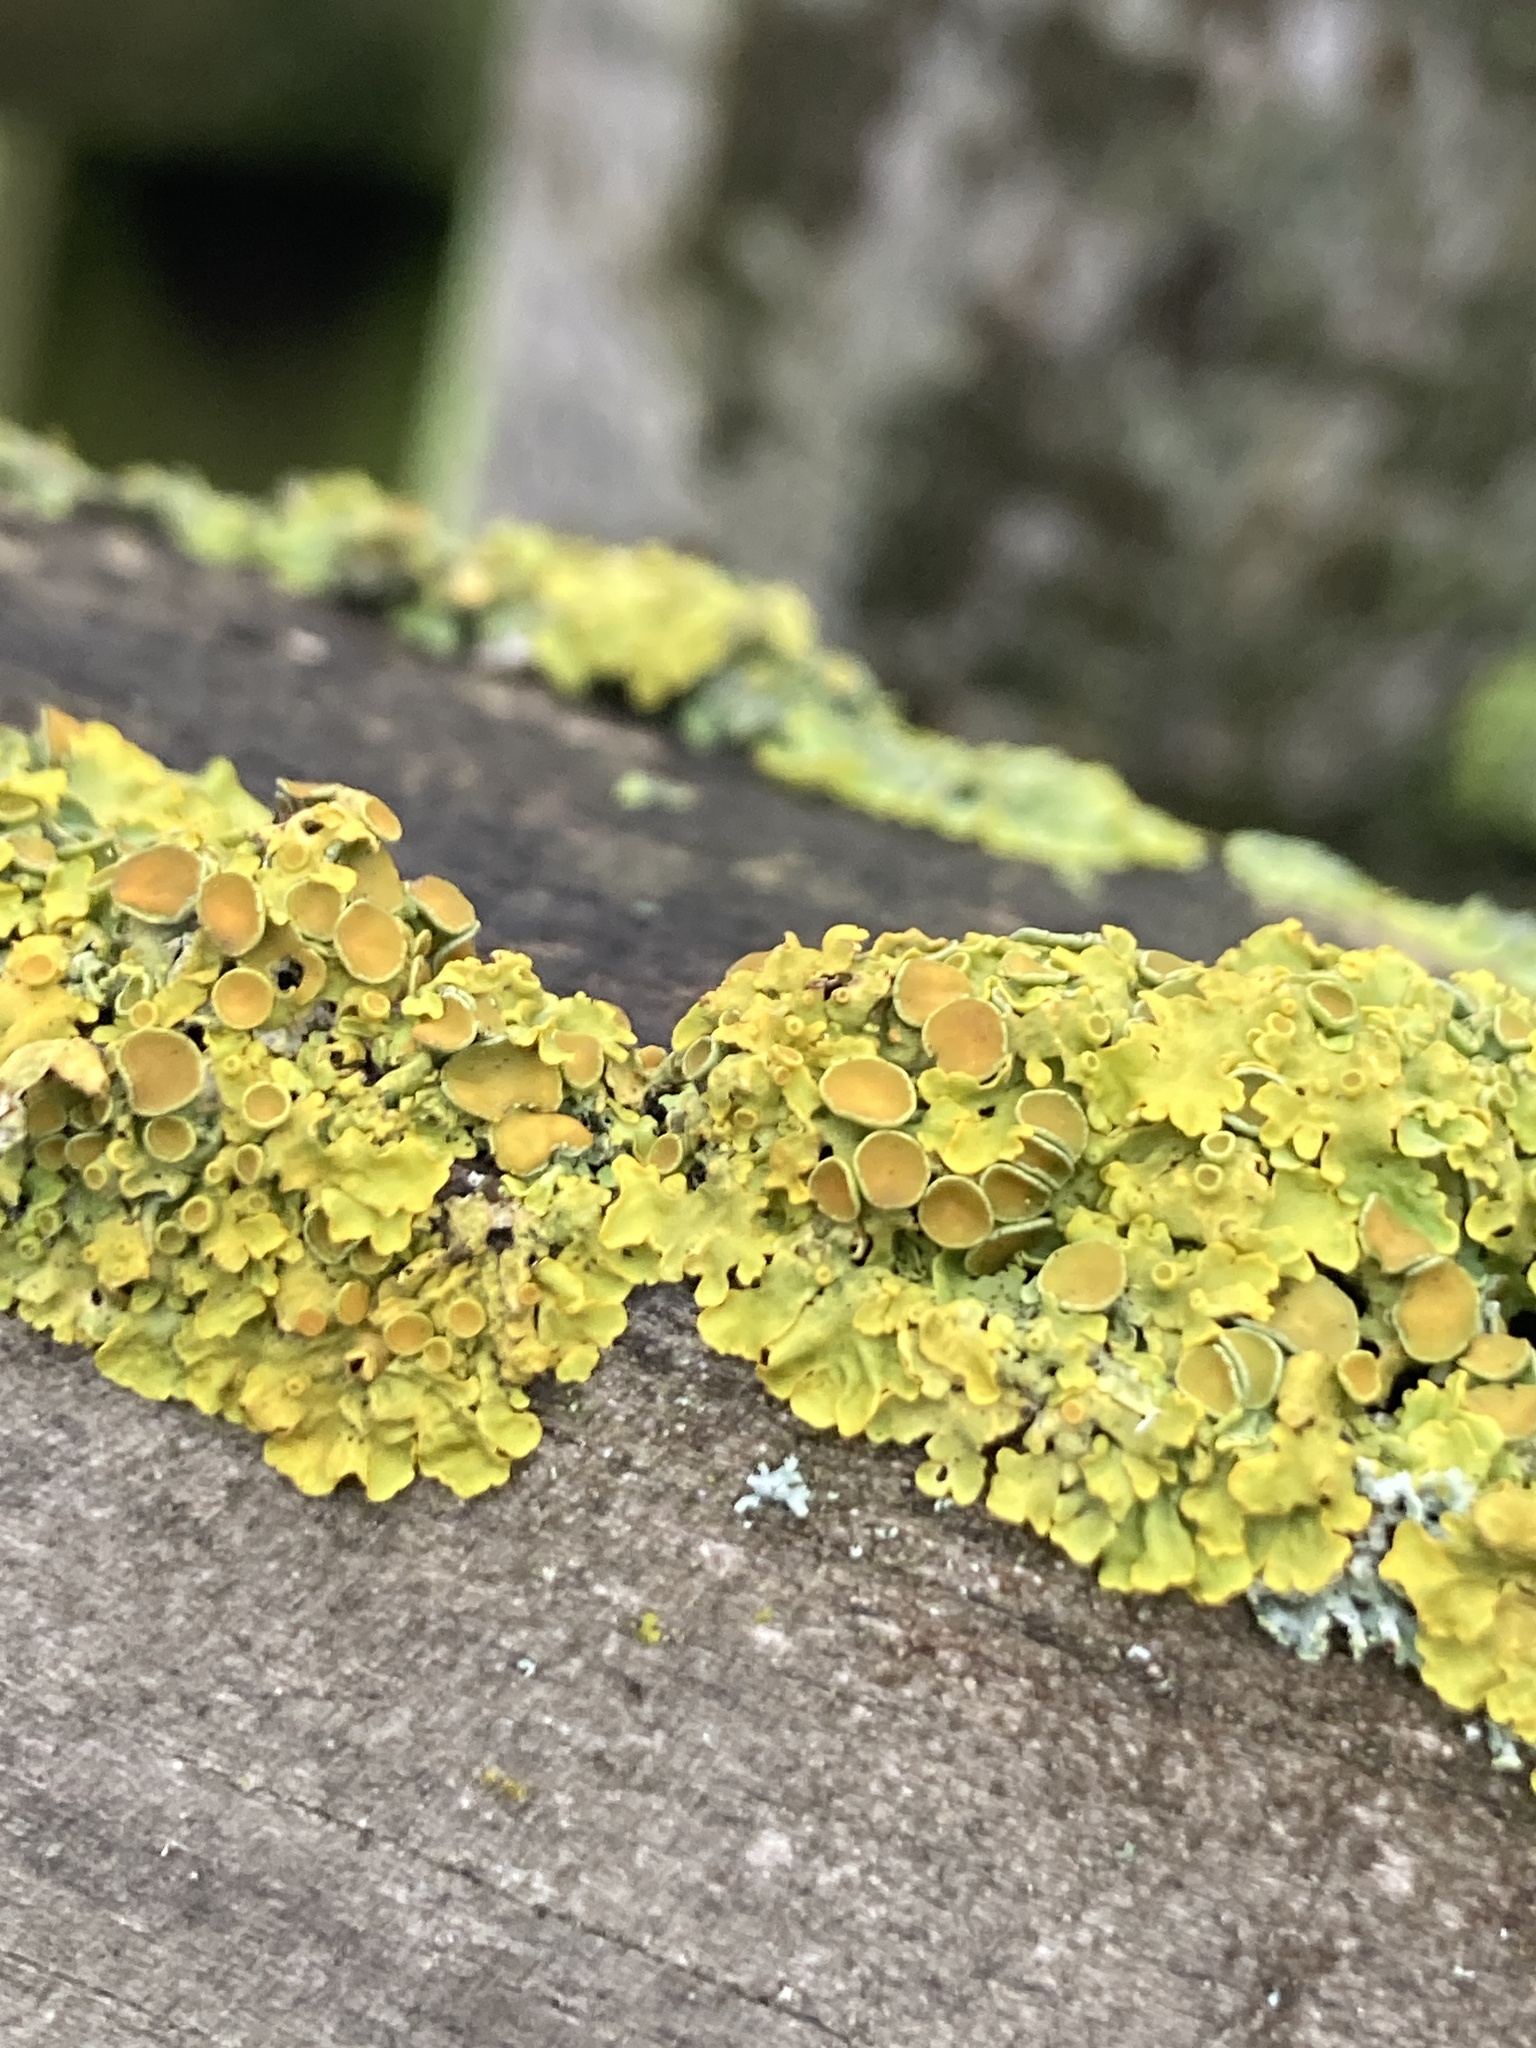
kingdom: Fungi
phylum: Ascomycota
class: Lecanoromycetes
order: Teloschistales
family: Teloschistaceae
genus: Xanthoria
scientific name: Xanthoria parietina
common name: Common orange lichen
